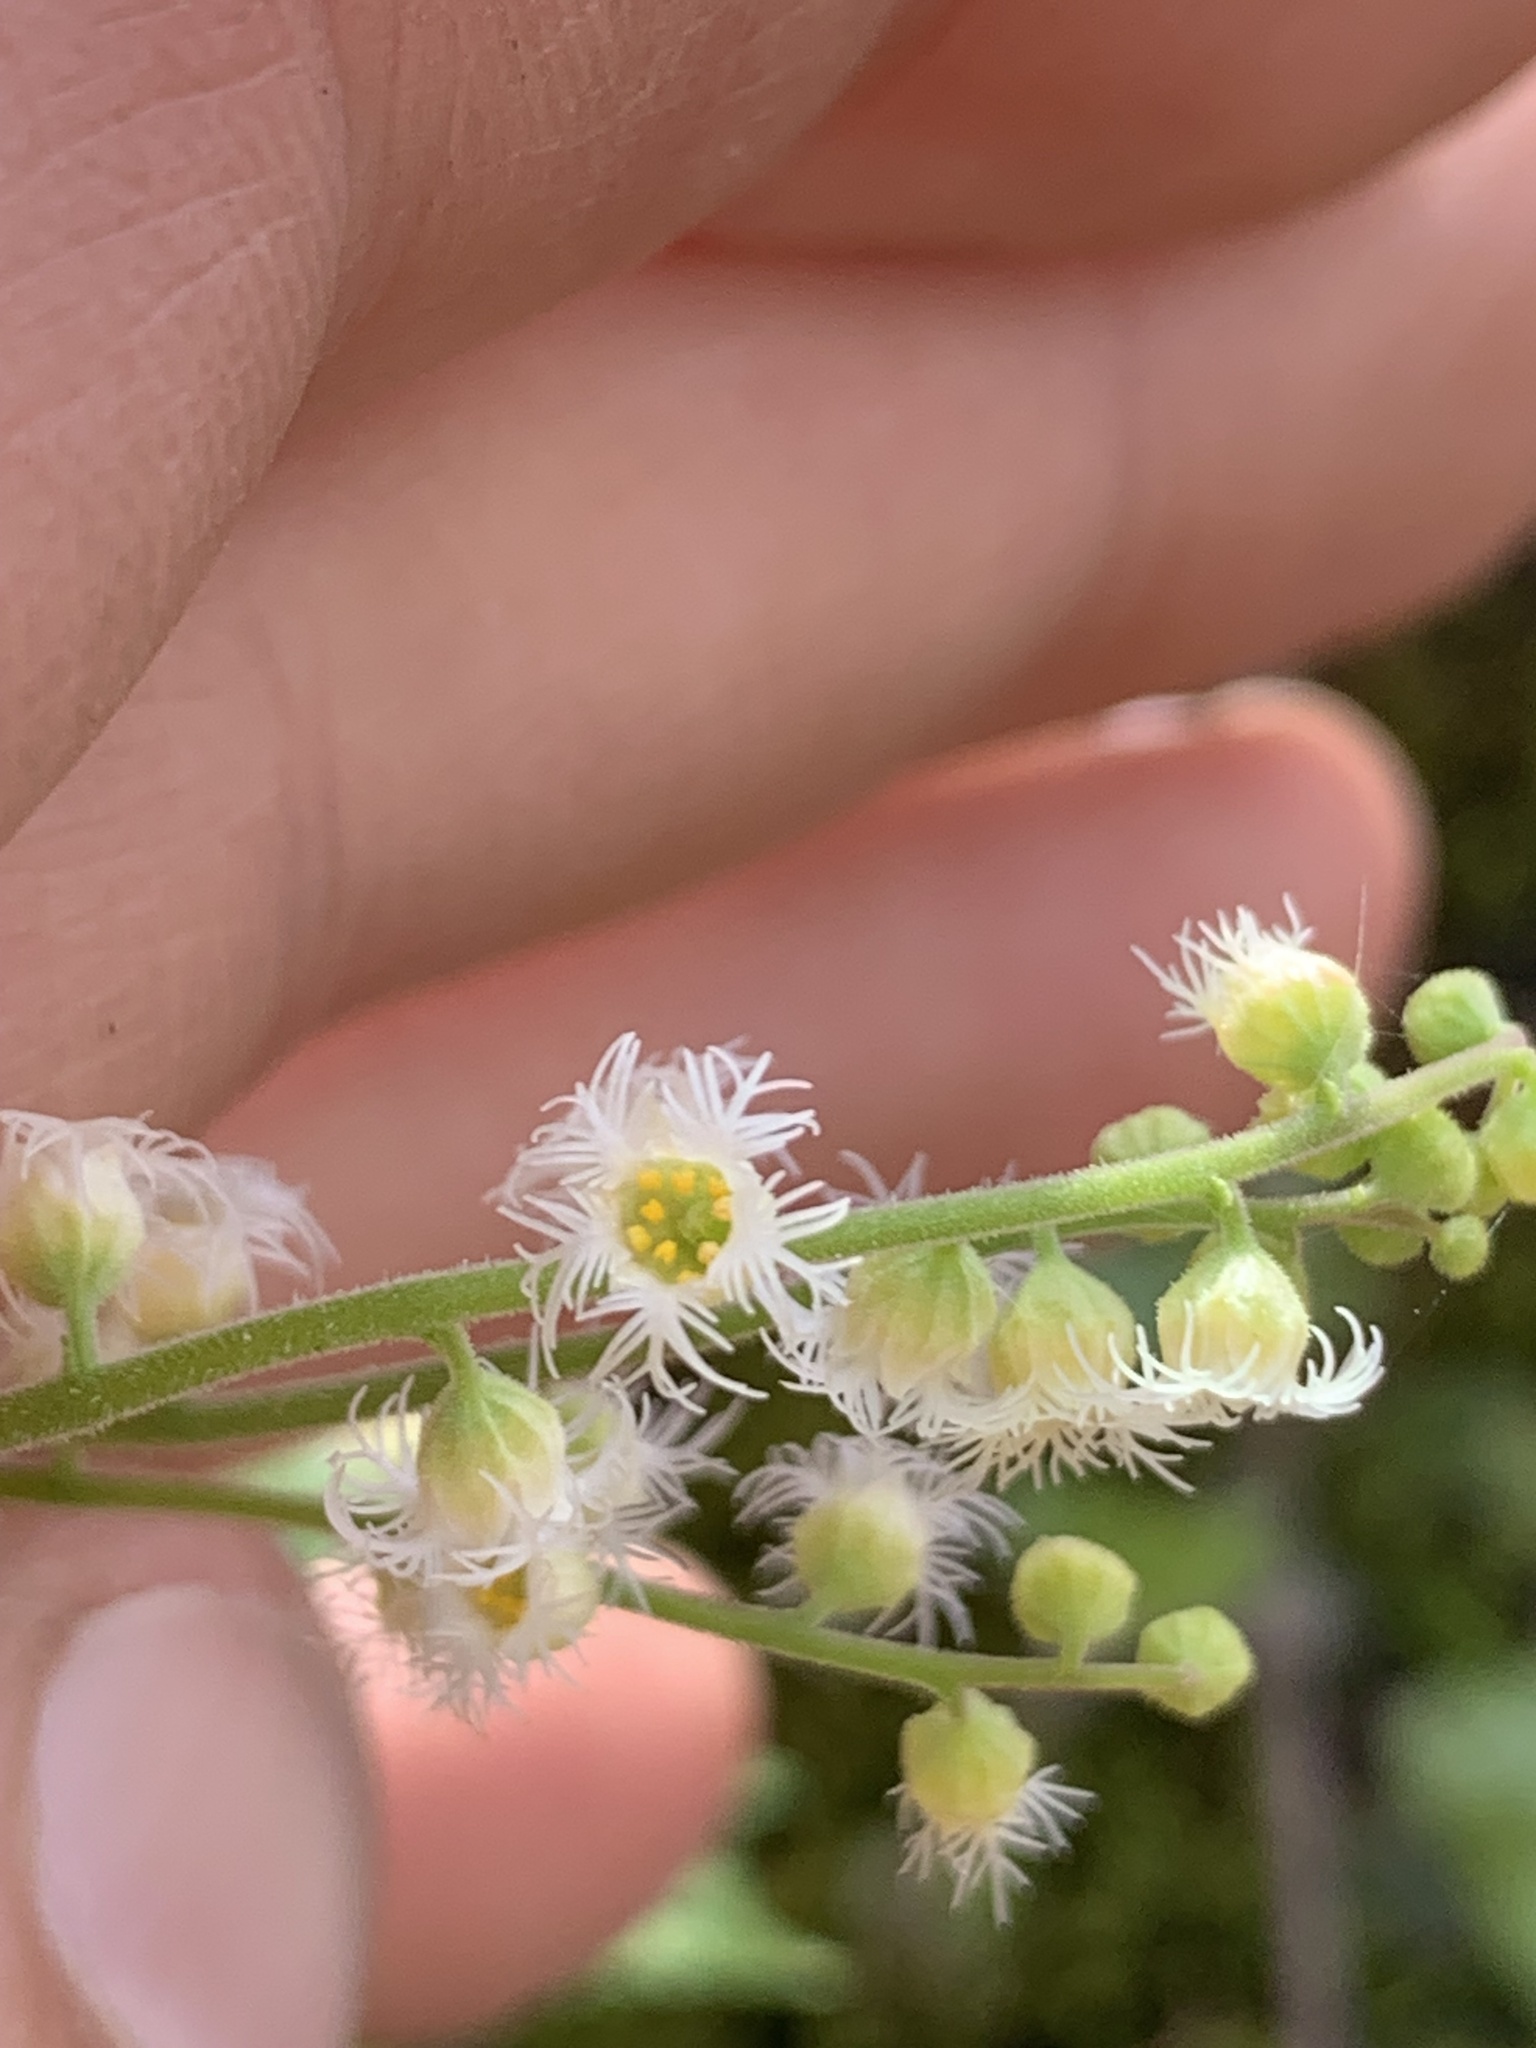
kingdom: Plantae
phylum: Tracheophyta
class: Magnoliopsida
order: Saxifragales
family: Saxifragaceae
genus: Mitella
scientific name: Mitella diphylla
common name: Coolwort
